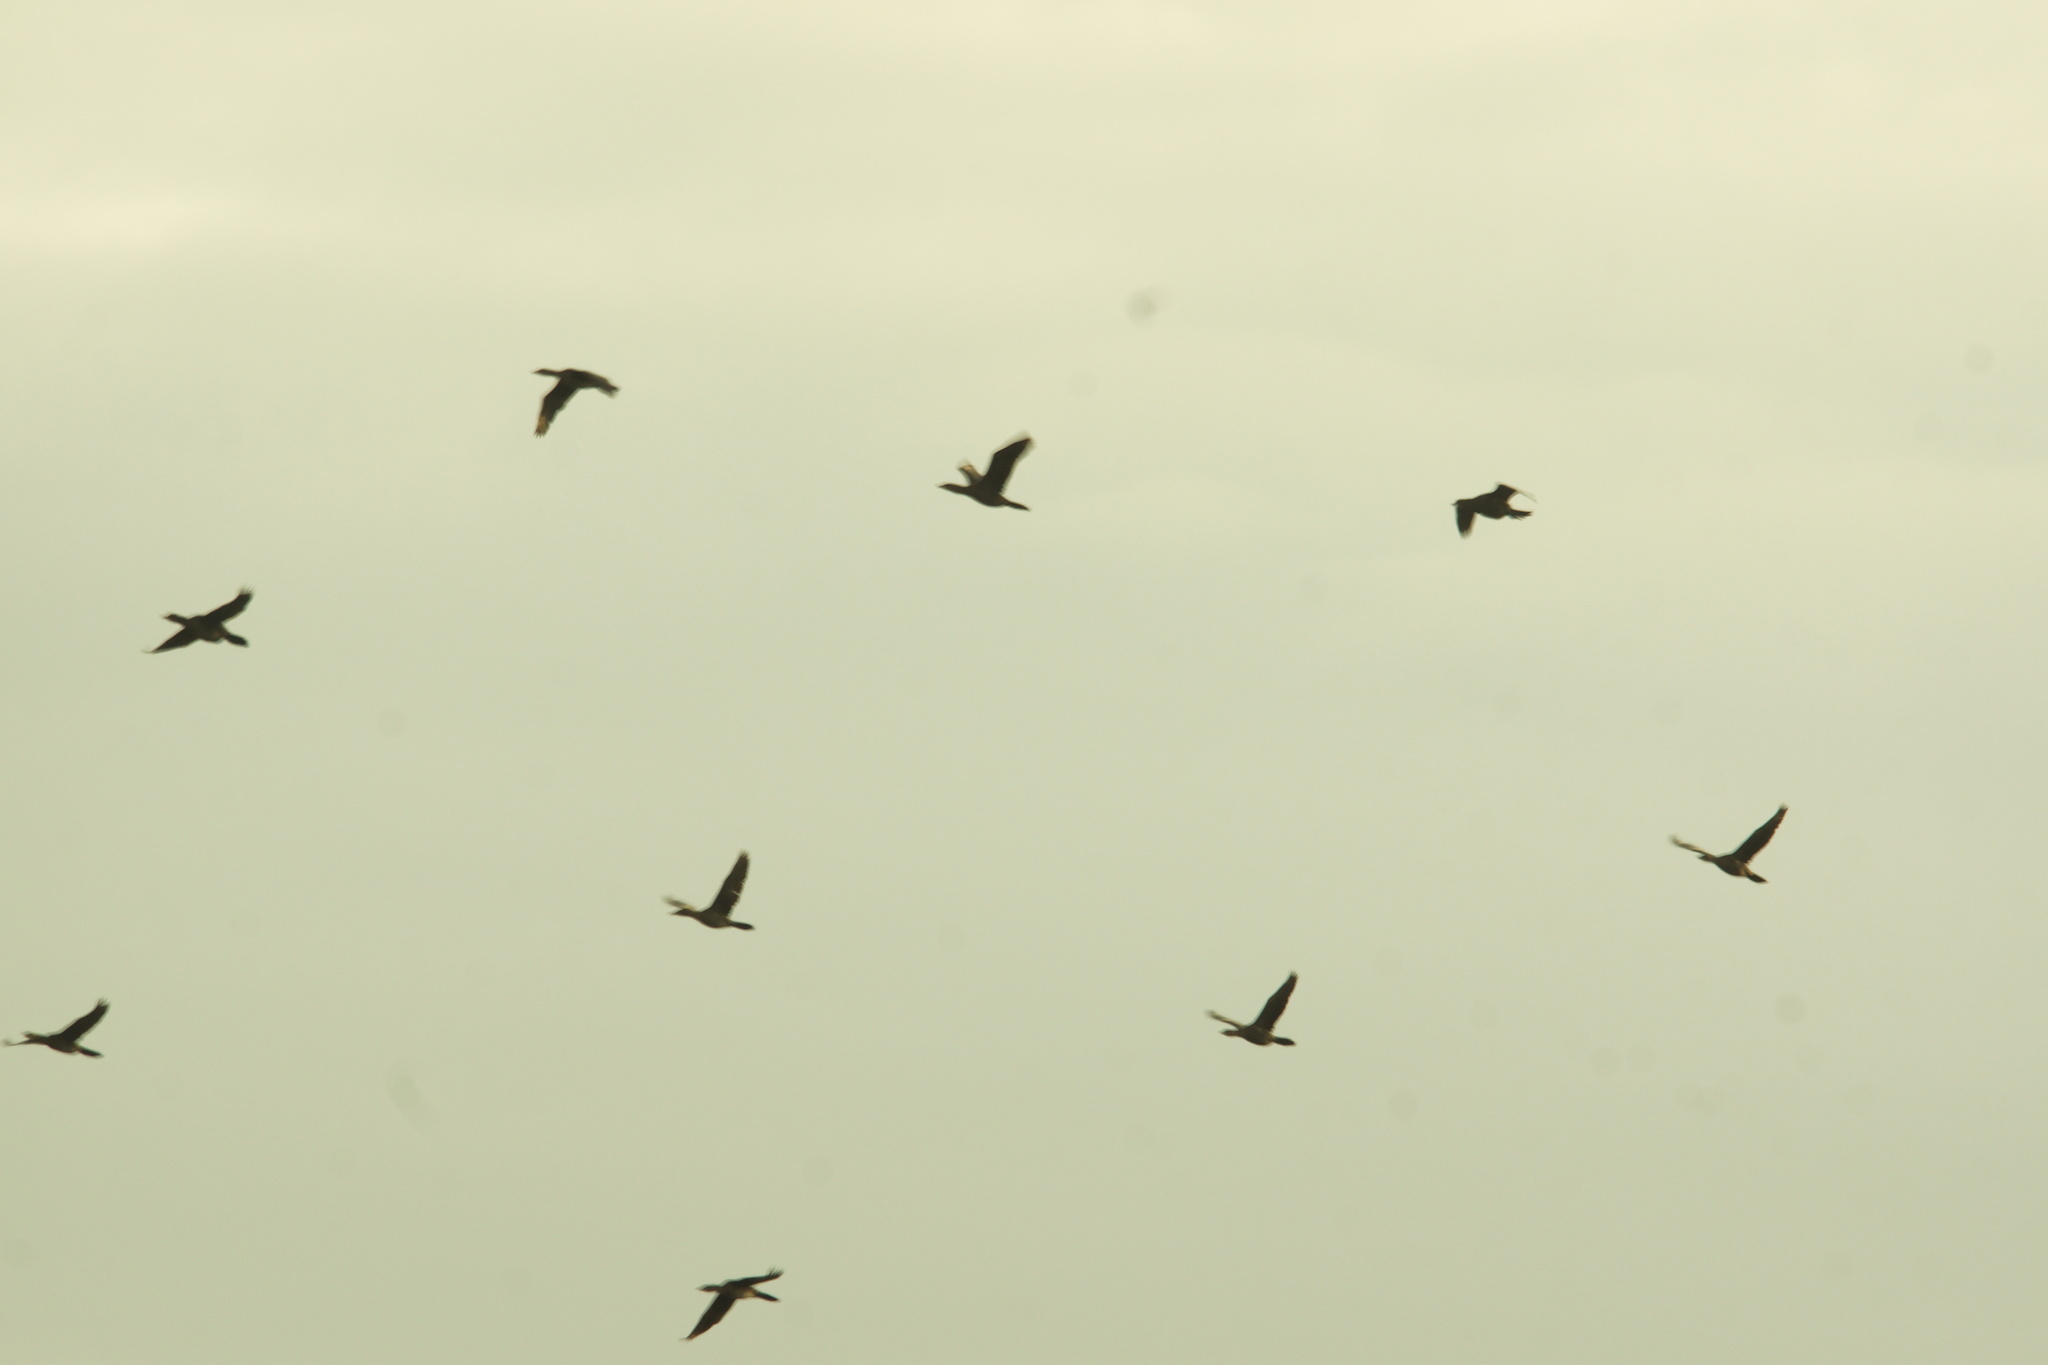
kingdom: Animalia
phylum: Chordata
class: Aves
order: Suliformes
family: Phalacrocoracidae
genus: Microcarbo
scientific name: Microcarbo pygmaeus
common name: Pygmy cormorant
